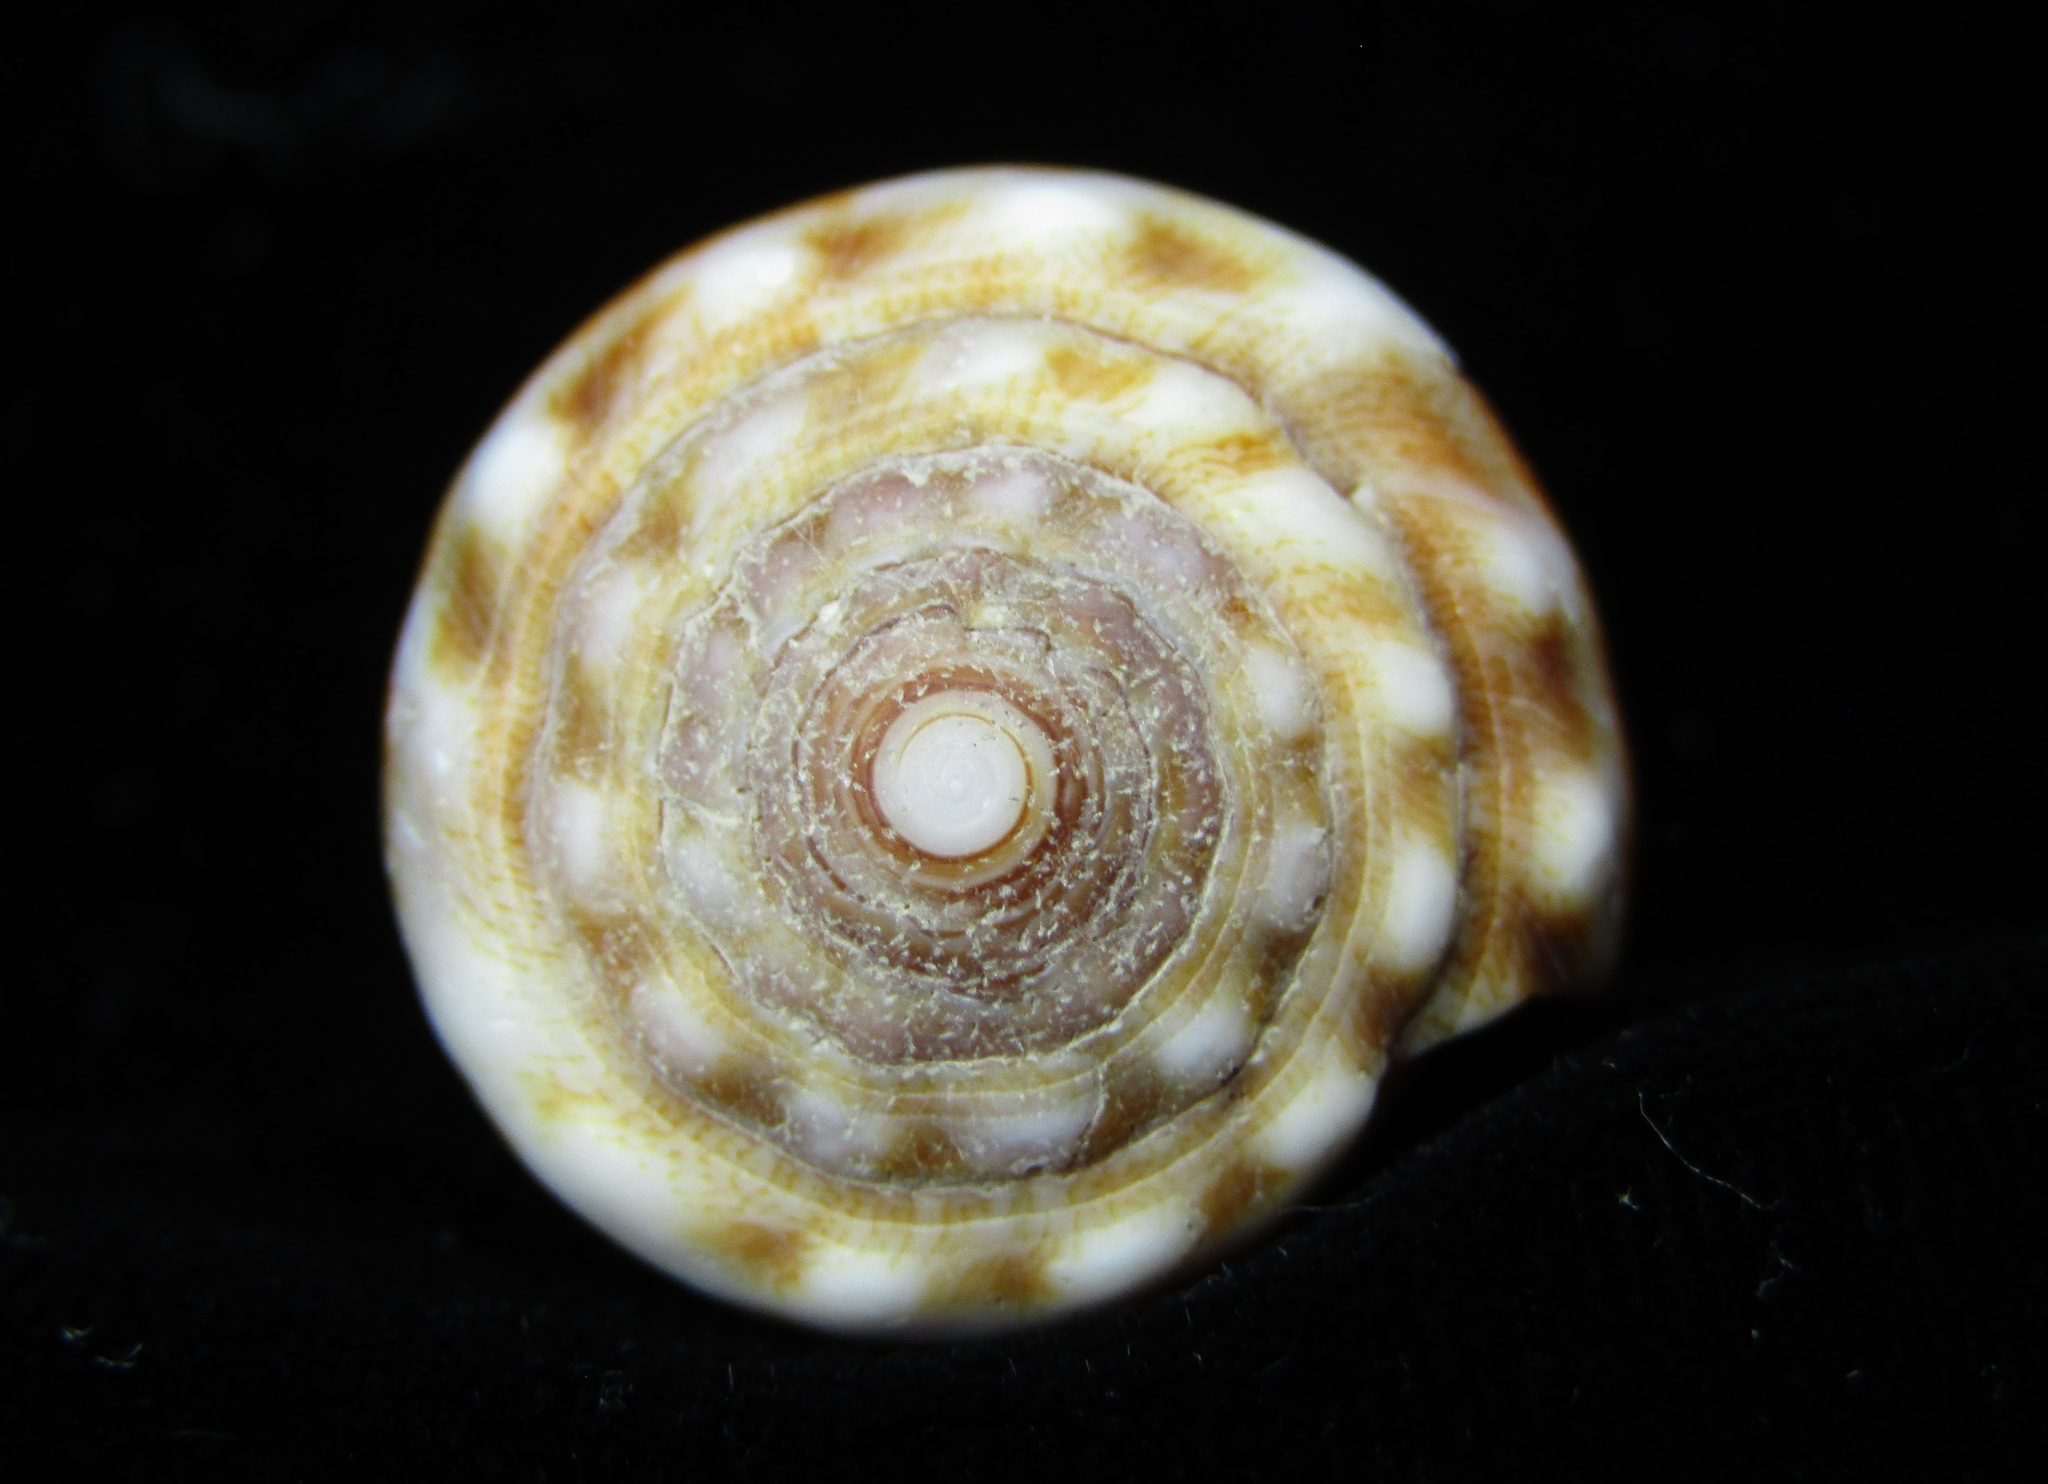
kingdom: Animalia
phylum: Mollusca
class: Gastropoda
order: Neogastropoda
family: Conidae
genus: Conus
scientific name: Conus fulgetrum
